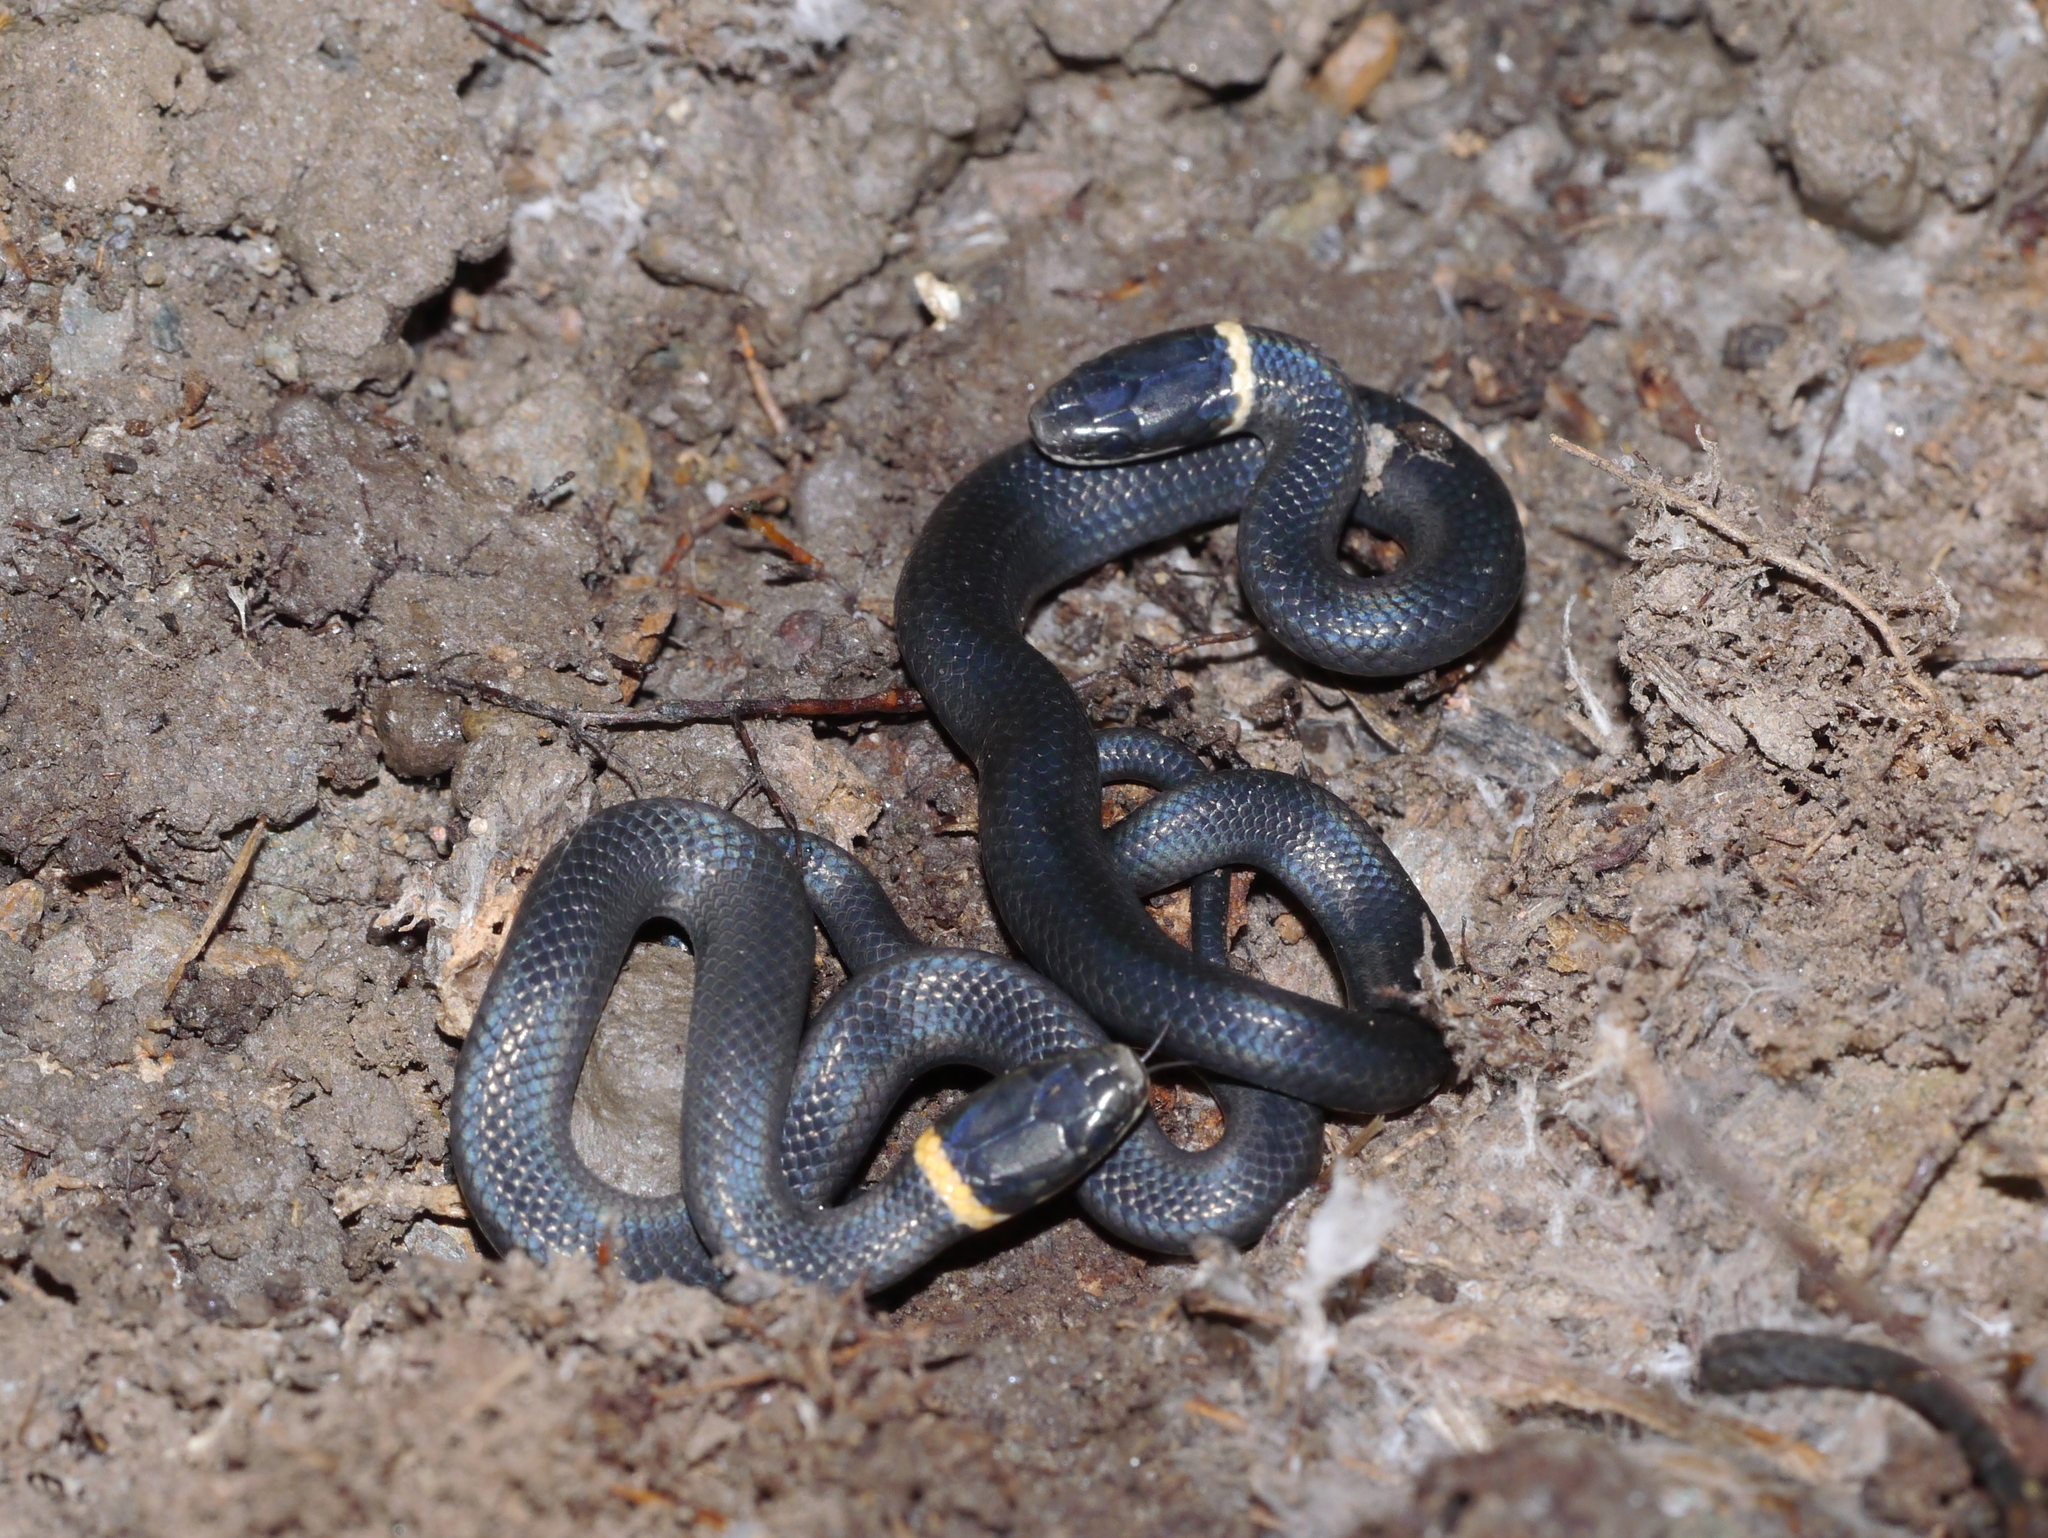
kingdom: Animalia
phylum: Chordata
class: Squamata
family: Colubridae
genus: Diadophis
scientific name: Diadophis punctatus
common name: Ringneck snake
